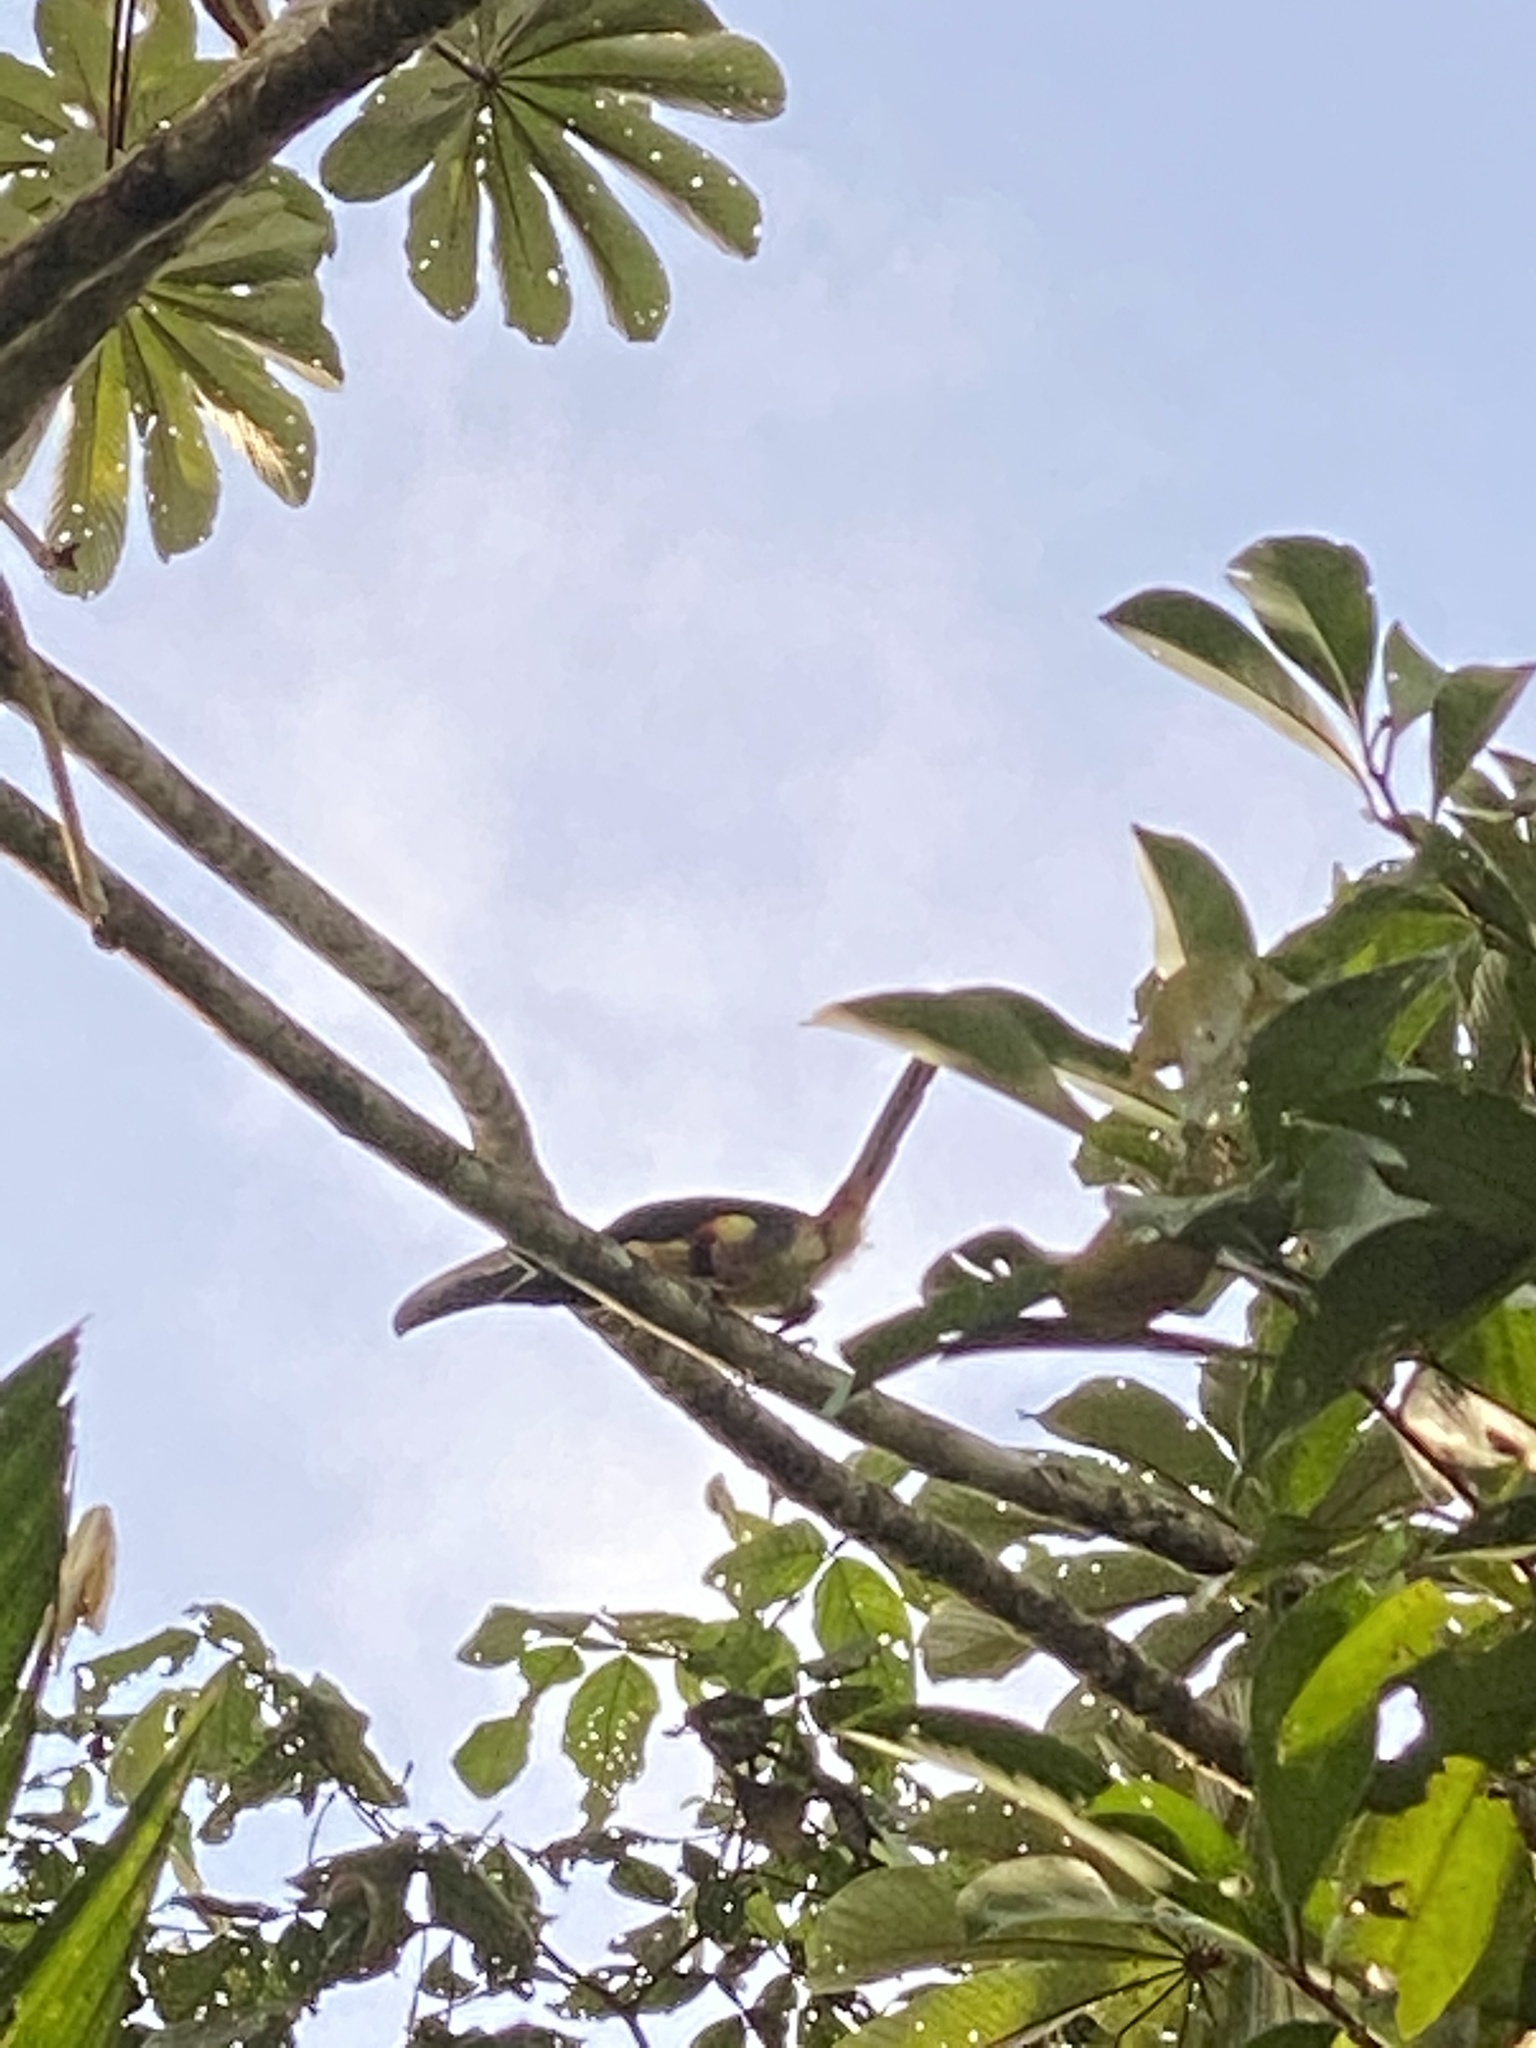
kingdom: Animalia
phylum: Chordata
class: Aves
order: Piciformes
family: Ramphastidae
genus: Pteroglossus
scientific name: Pteroglossus torquatus
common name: Collared aracari
